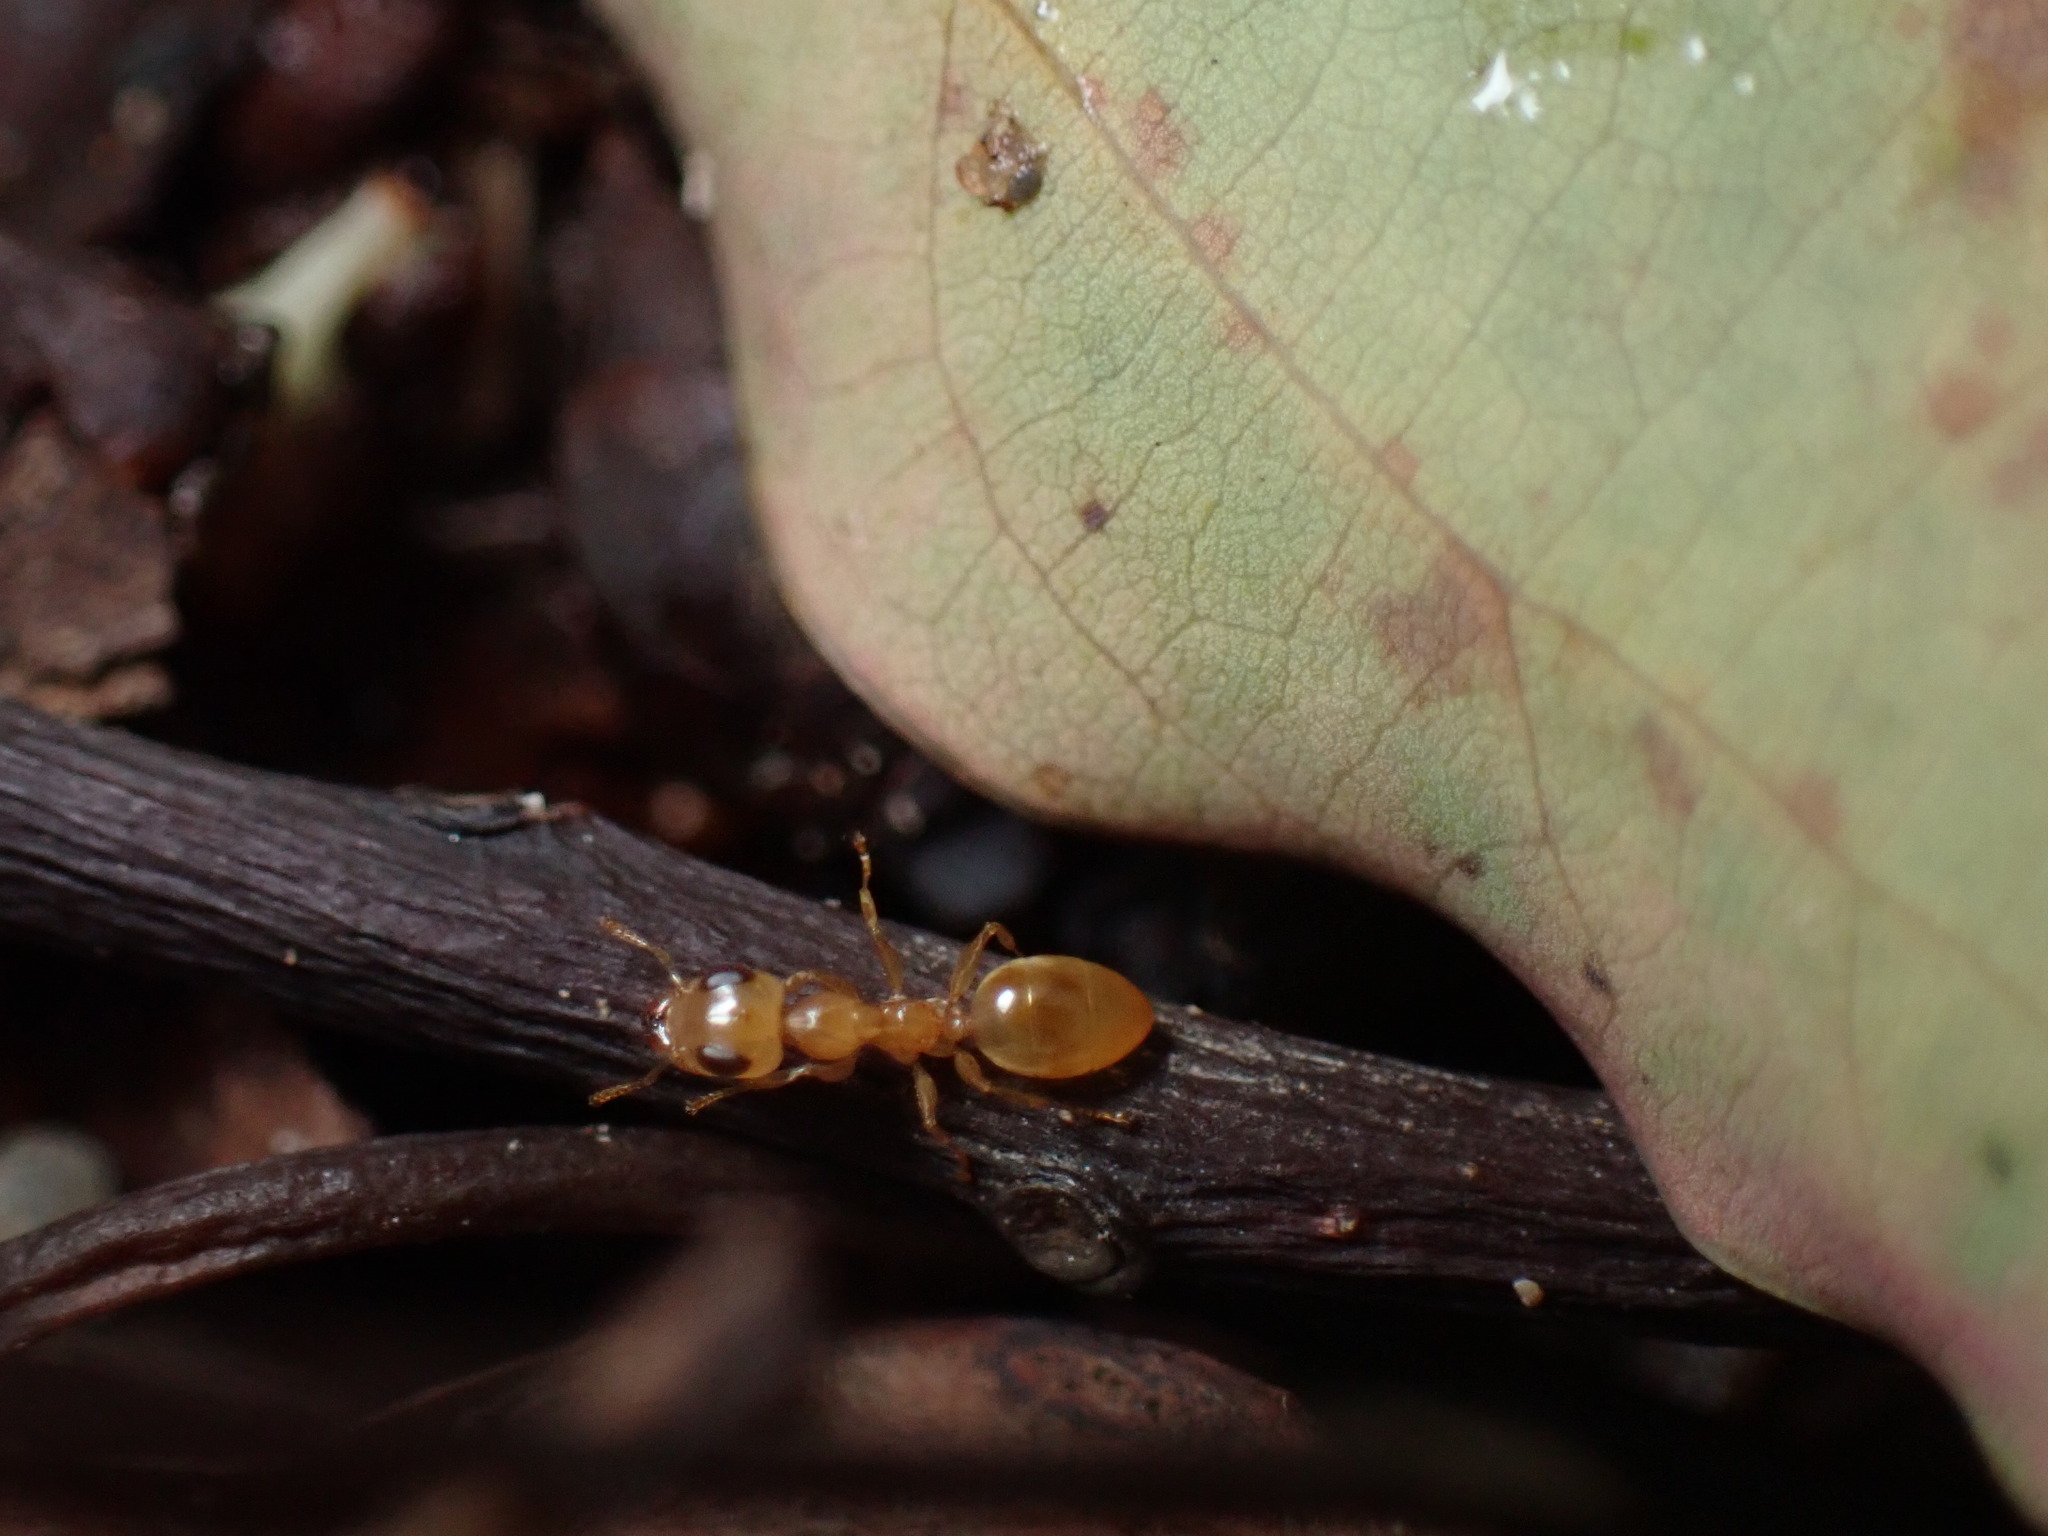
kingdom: Animalia
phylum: Arthropoda
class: Insecta
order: Hymenoptera
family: Formicidae
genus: Gesomyrmex
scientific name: Gesomyrmex howardi
